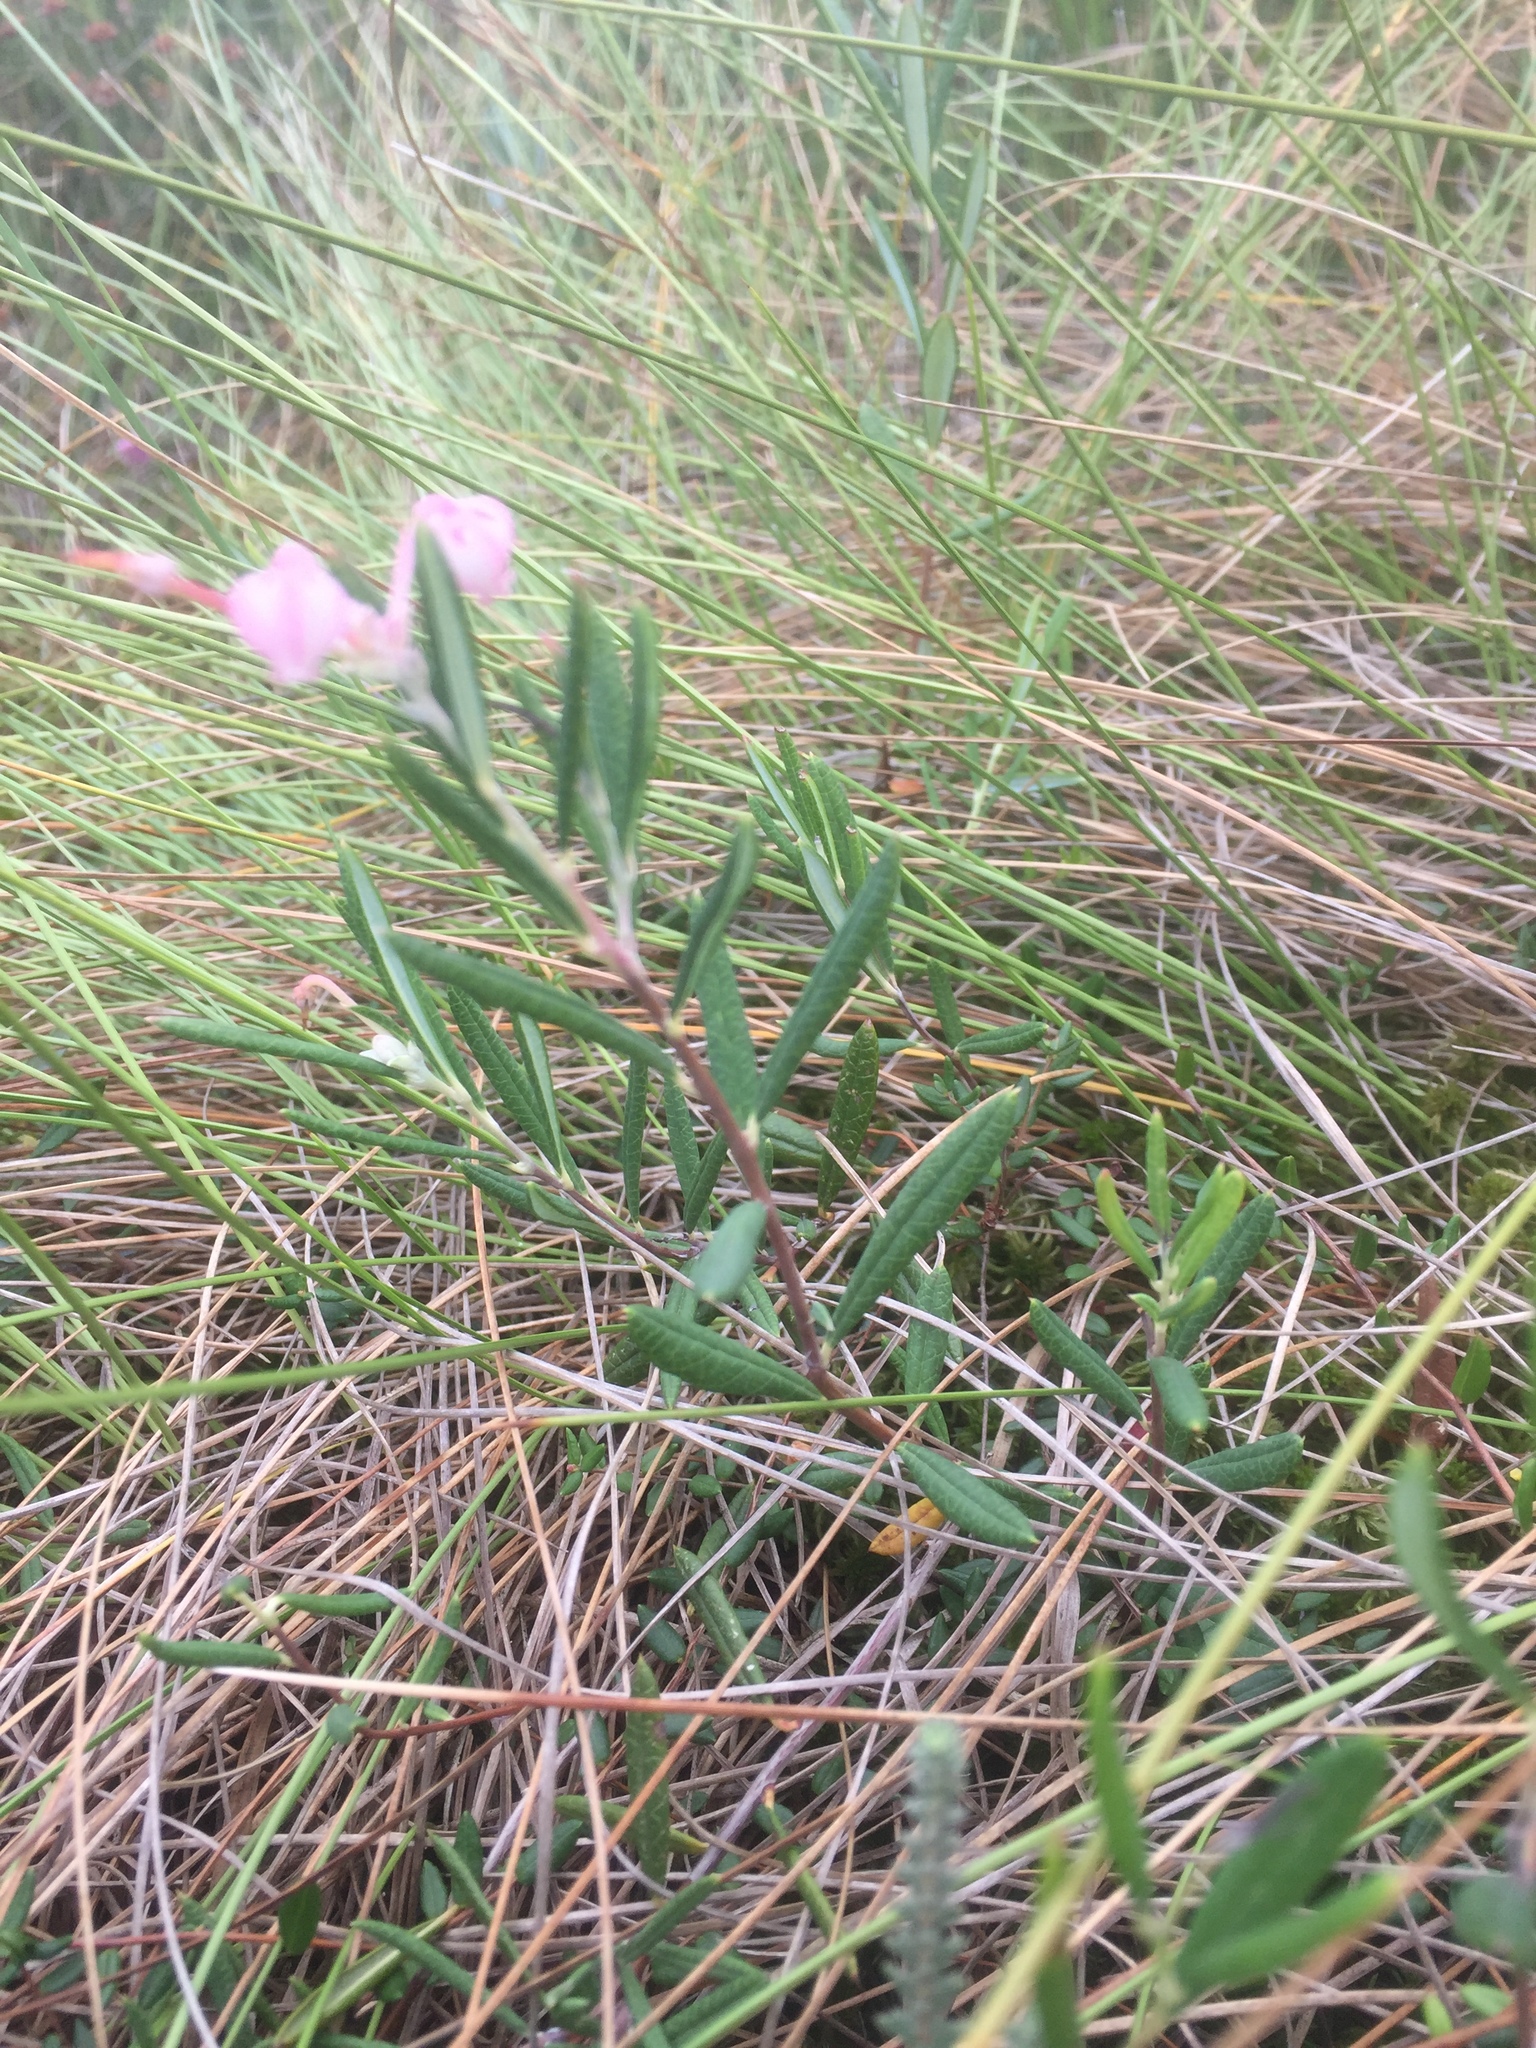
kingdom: Plantae
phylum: Tracheophyta
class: Magnoliopsida
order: Ericales
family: Ericaceae
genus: Andromeda
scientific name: Andromeda polifolia
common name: Bog-rosemary
